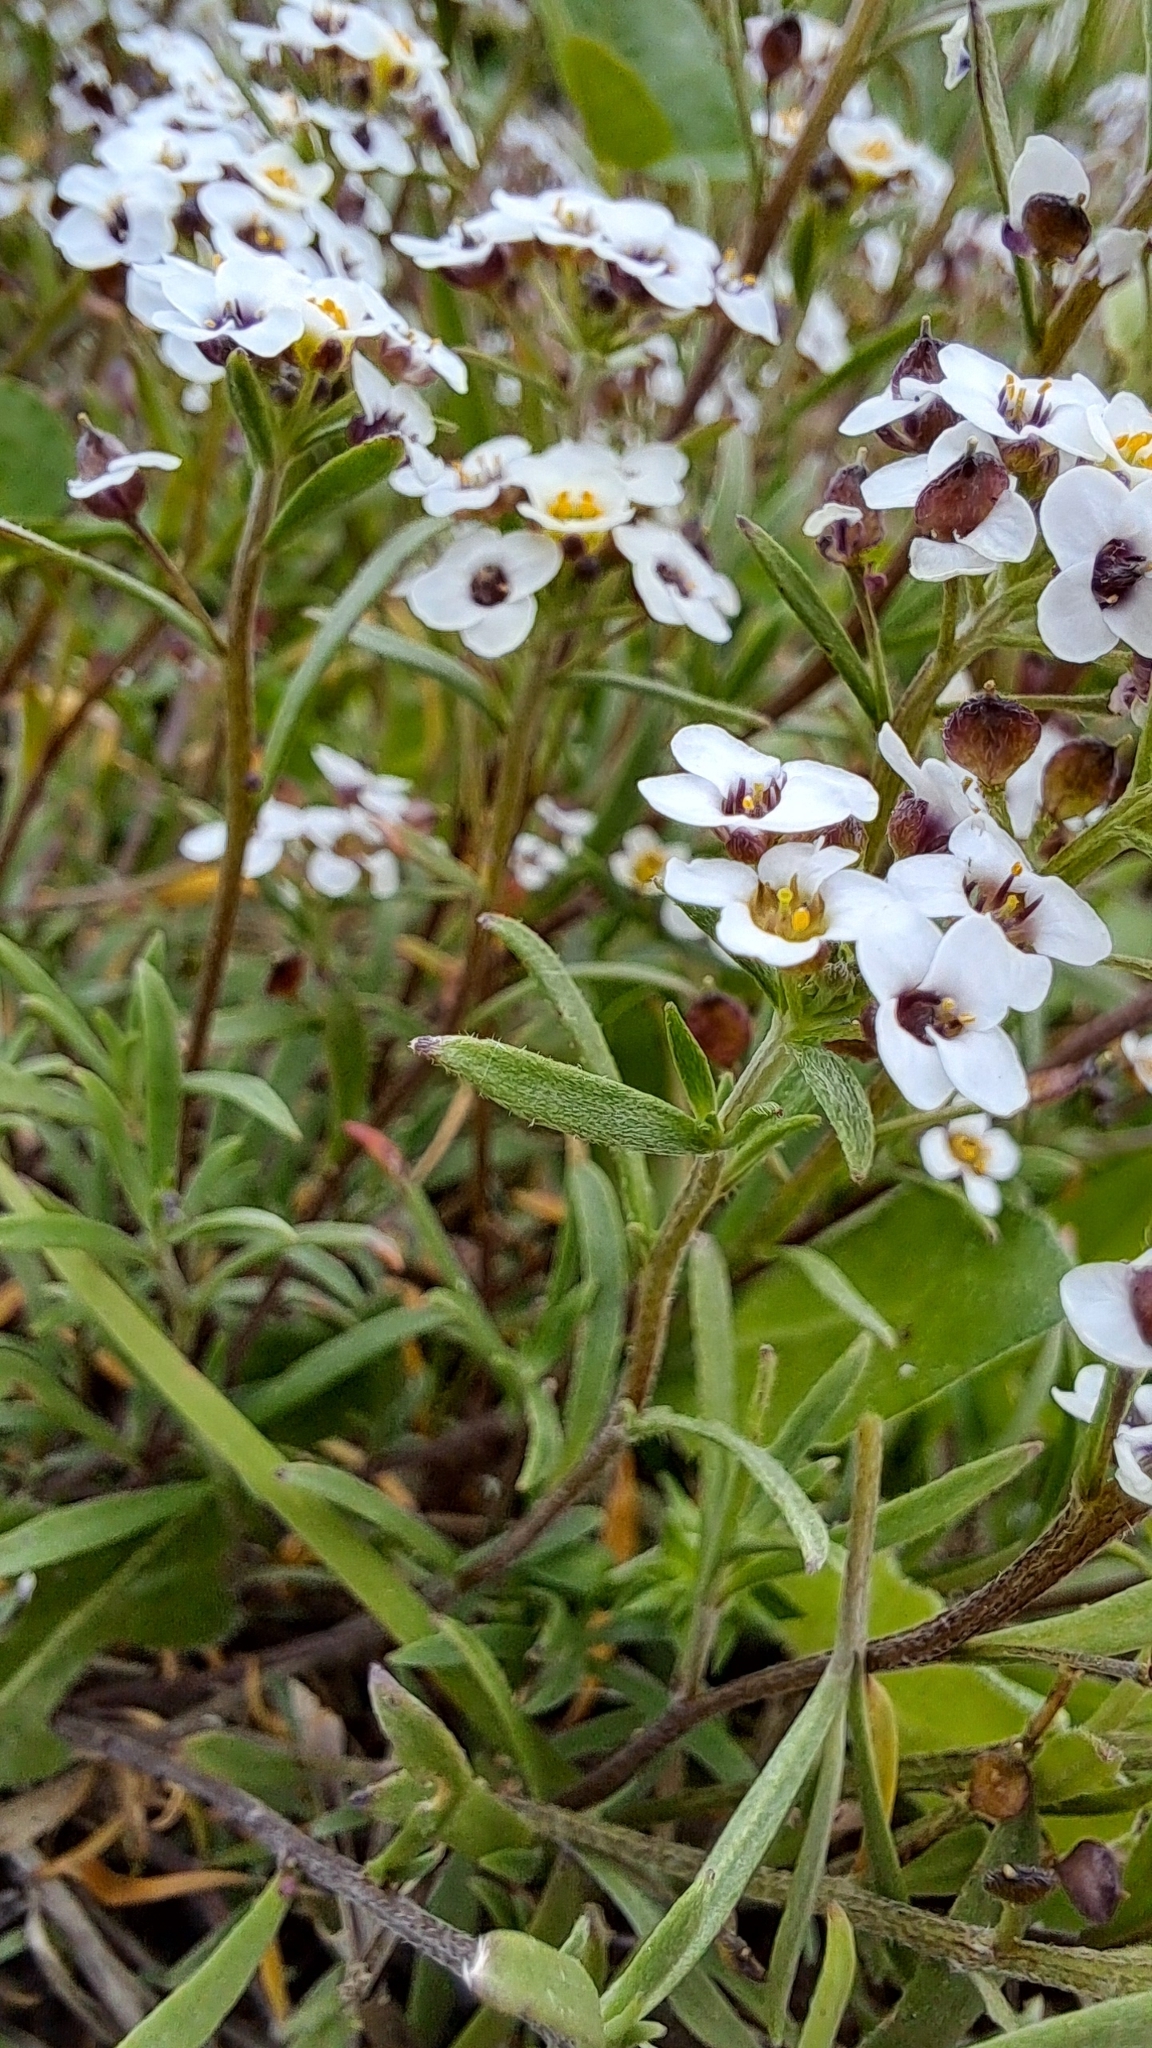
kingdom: Plantae
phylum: Tracheophyta
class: Magnoliopsida
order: Brassicales
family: Brassicaceae
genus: Lobularia
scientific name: Lobularia maritima
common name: Sweet alison
